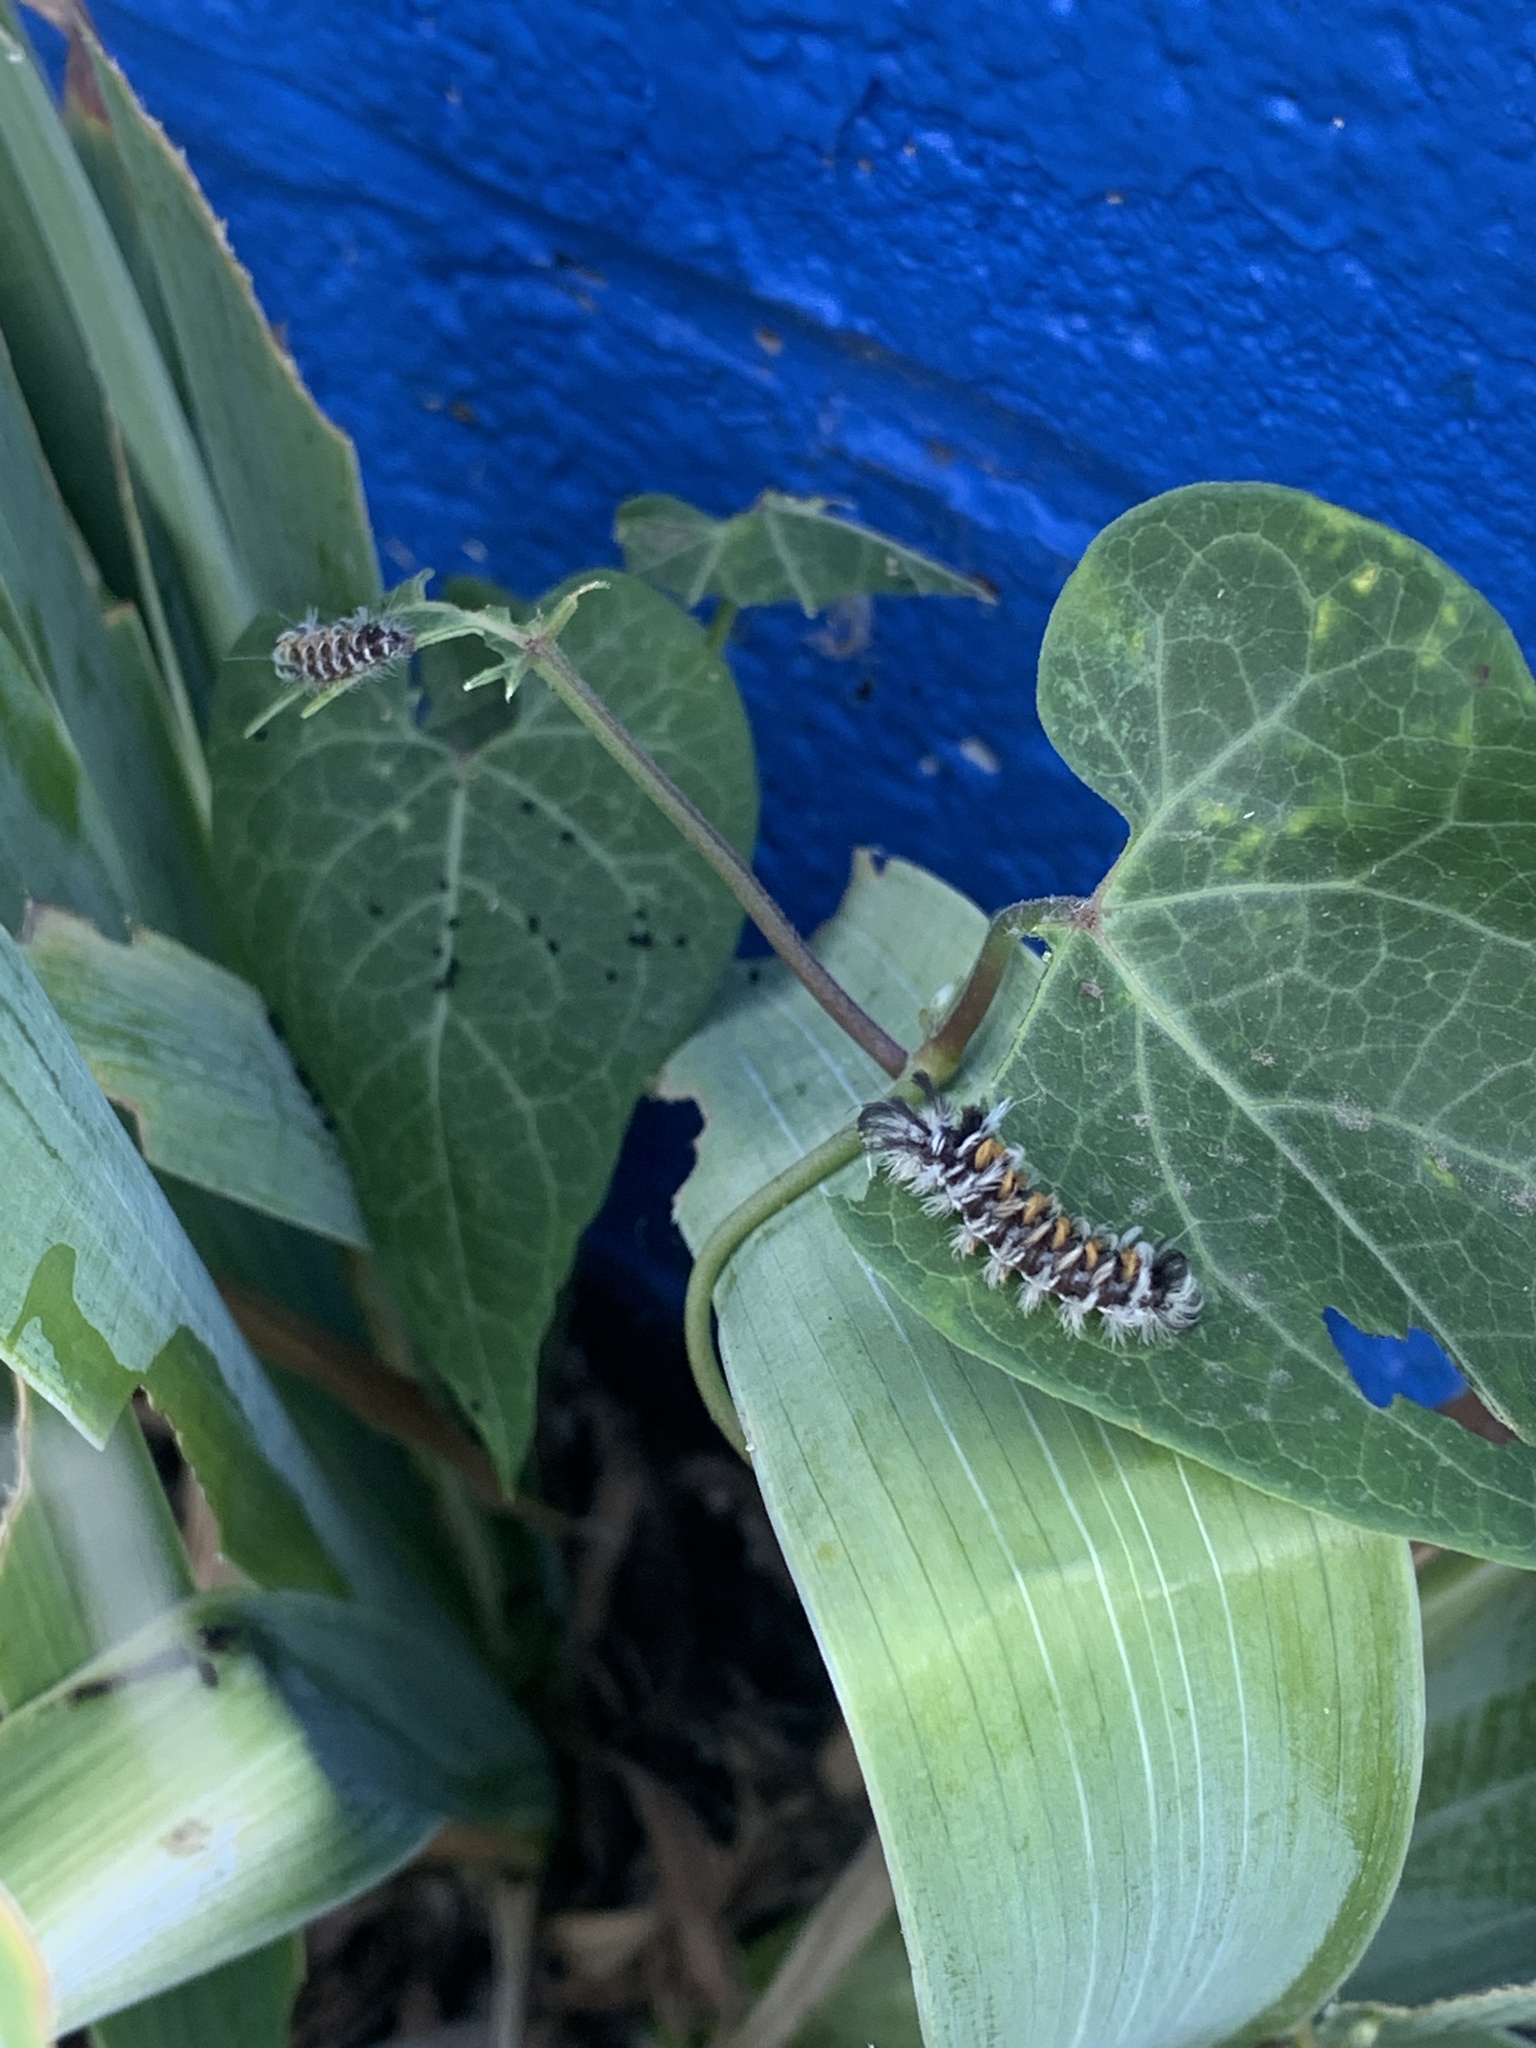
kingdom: Animalia
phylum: Arthropoda
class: Insecta
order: Lepidoptera
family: Erebidae
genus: Euchaetes
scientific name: Euchaetes egle
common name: Milkweed tussock moth
